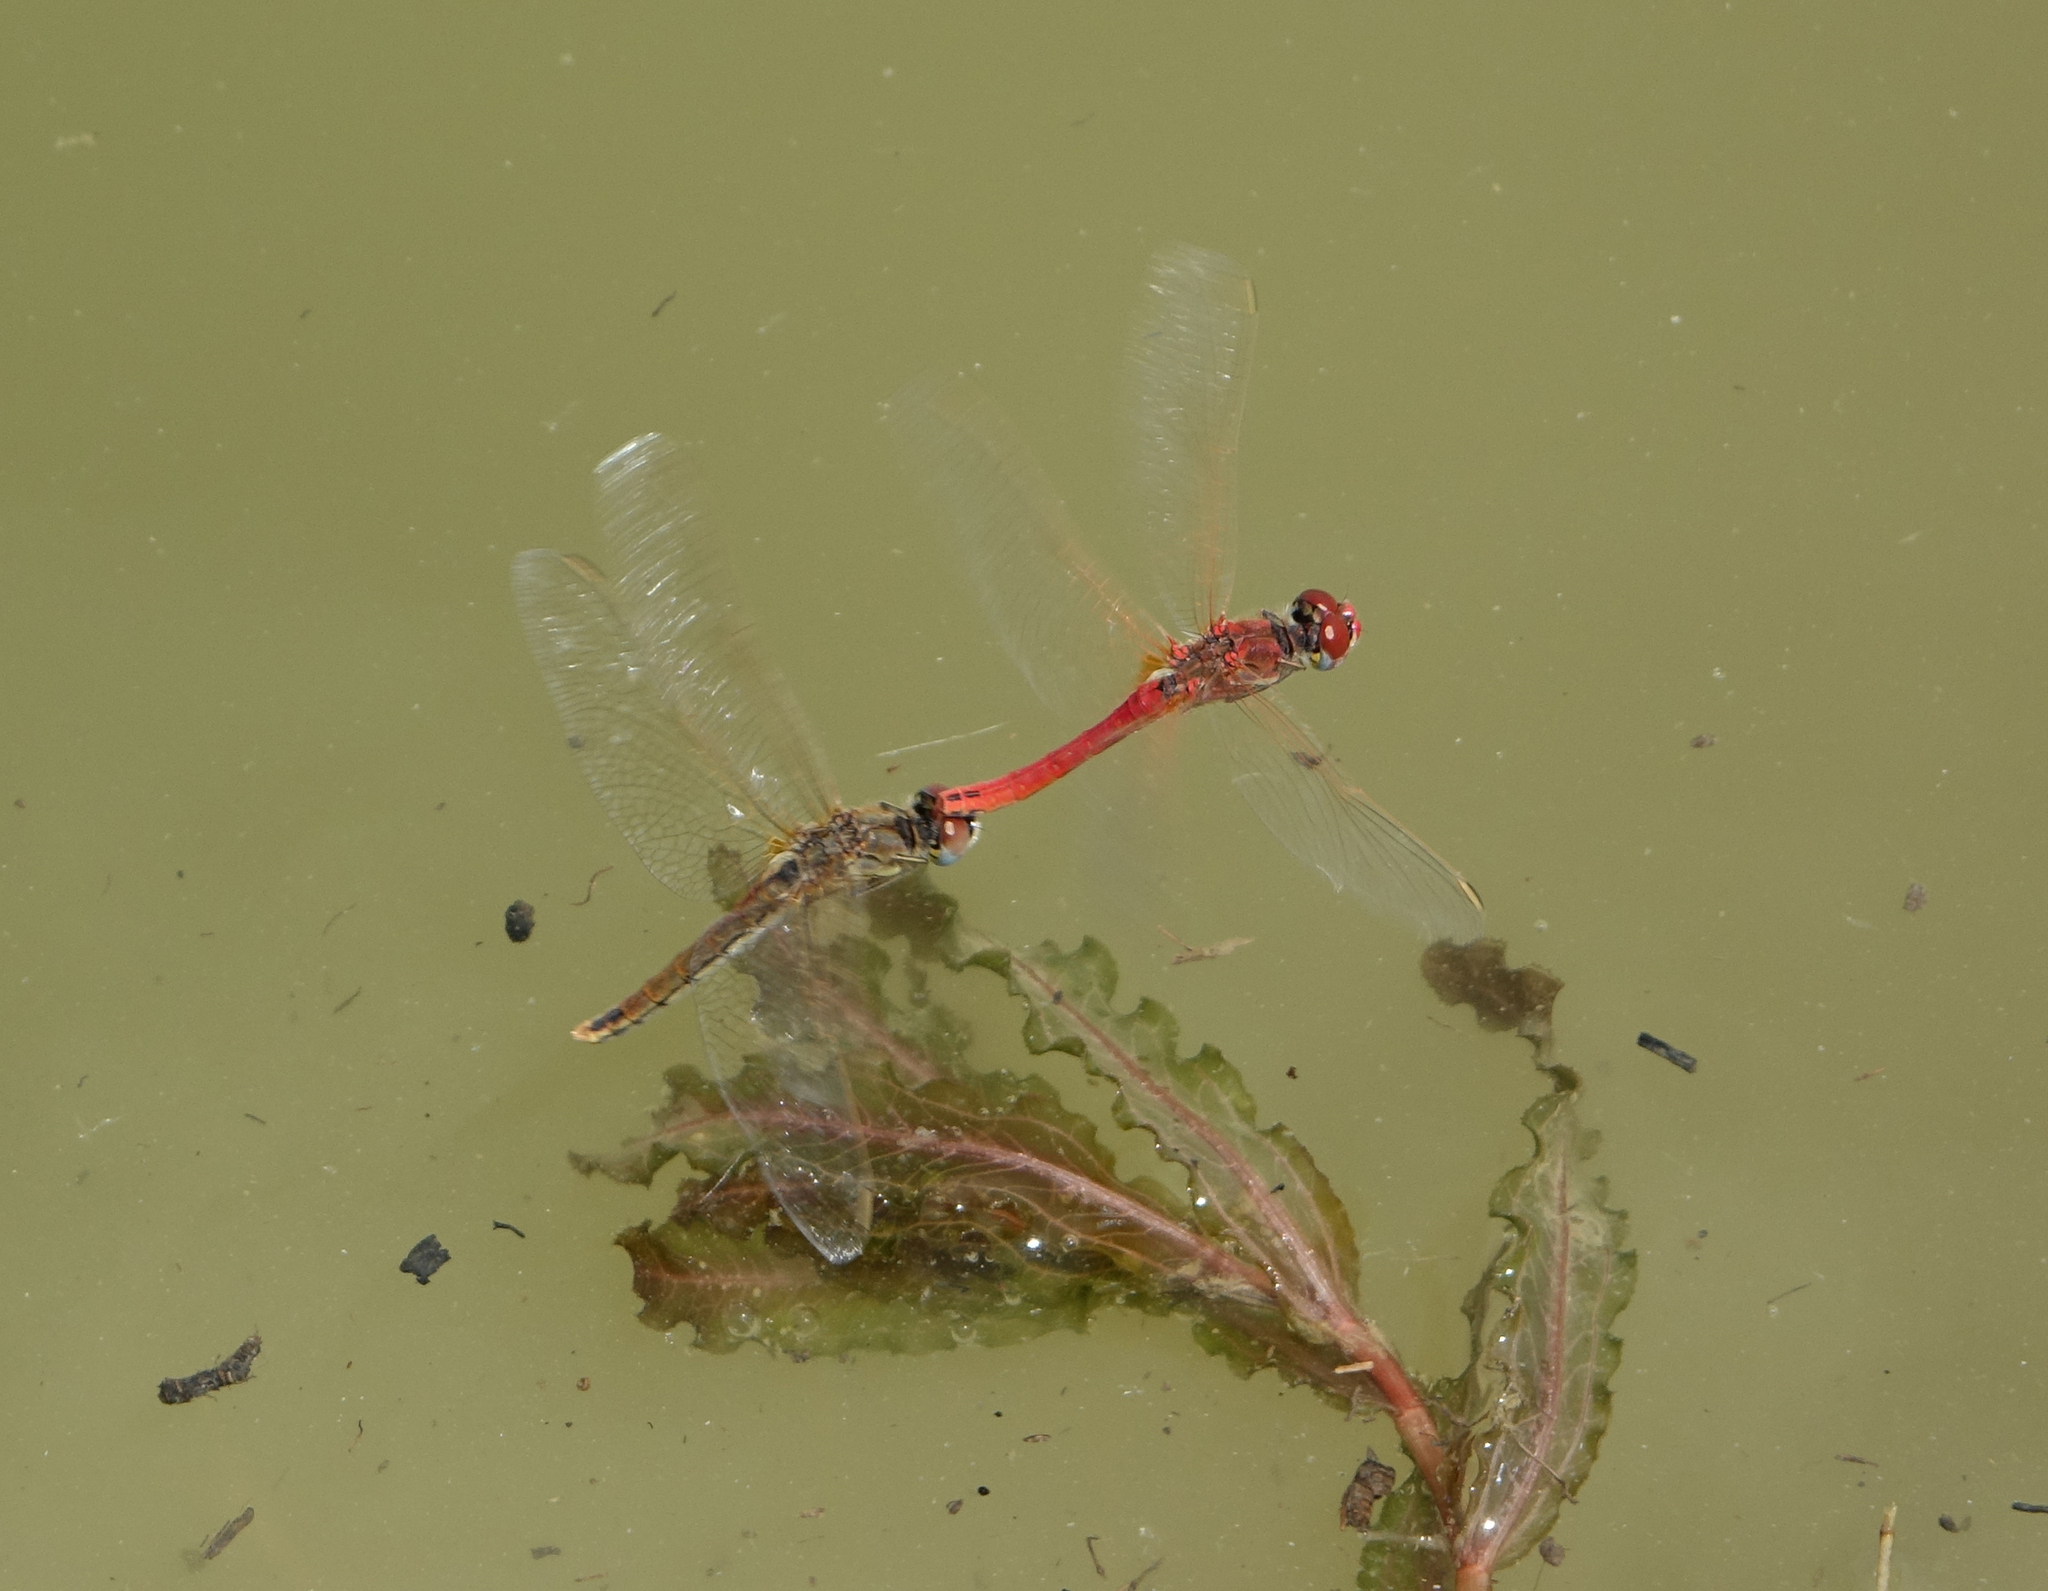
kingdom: Plantae
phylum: Tracheophyta
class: Liliopsida
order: Alismatales
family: Potamogetonaceae
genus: Potamogeton
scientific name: Potamogeton crispus
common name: Curled pondweed
